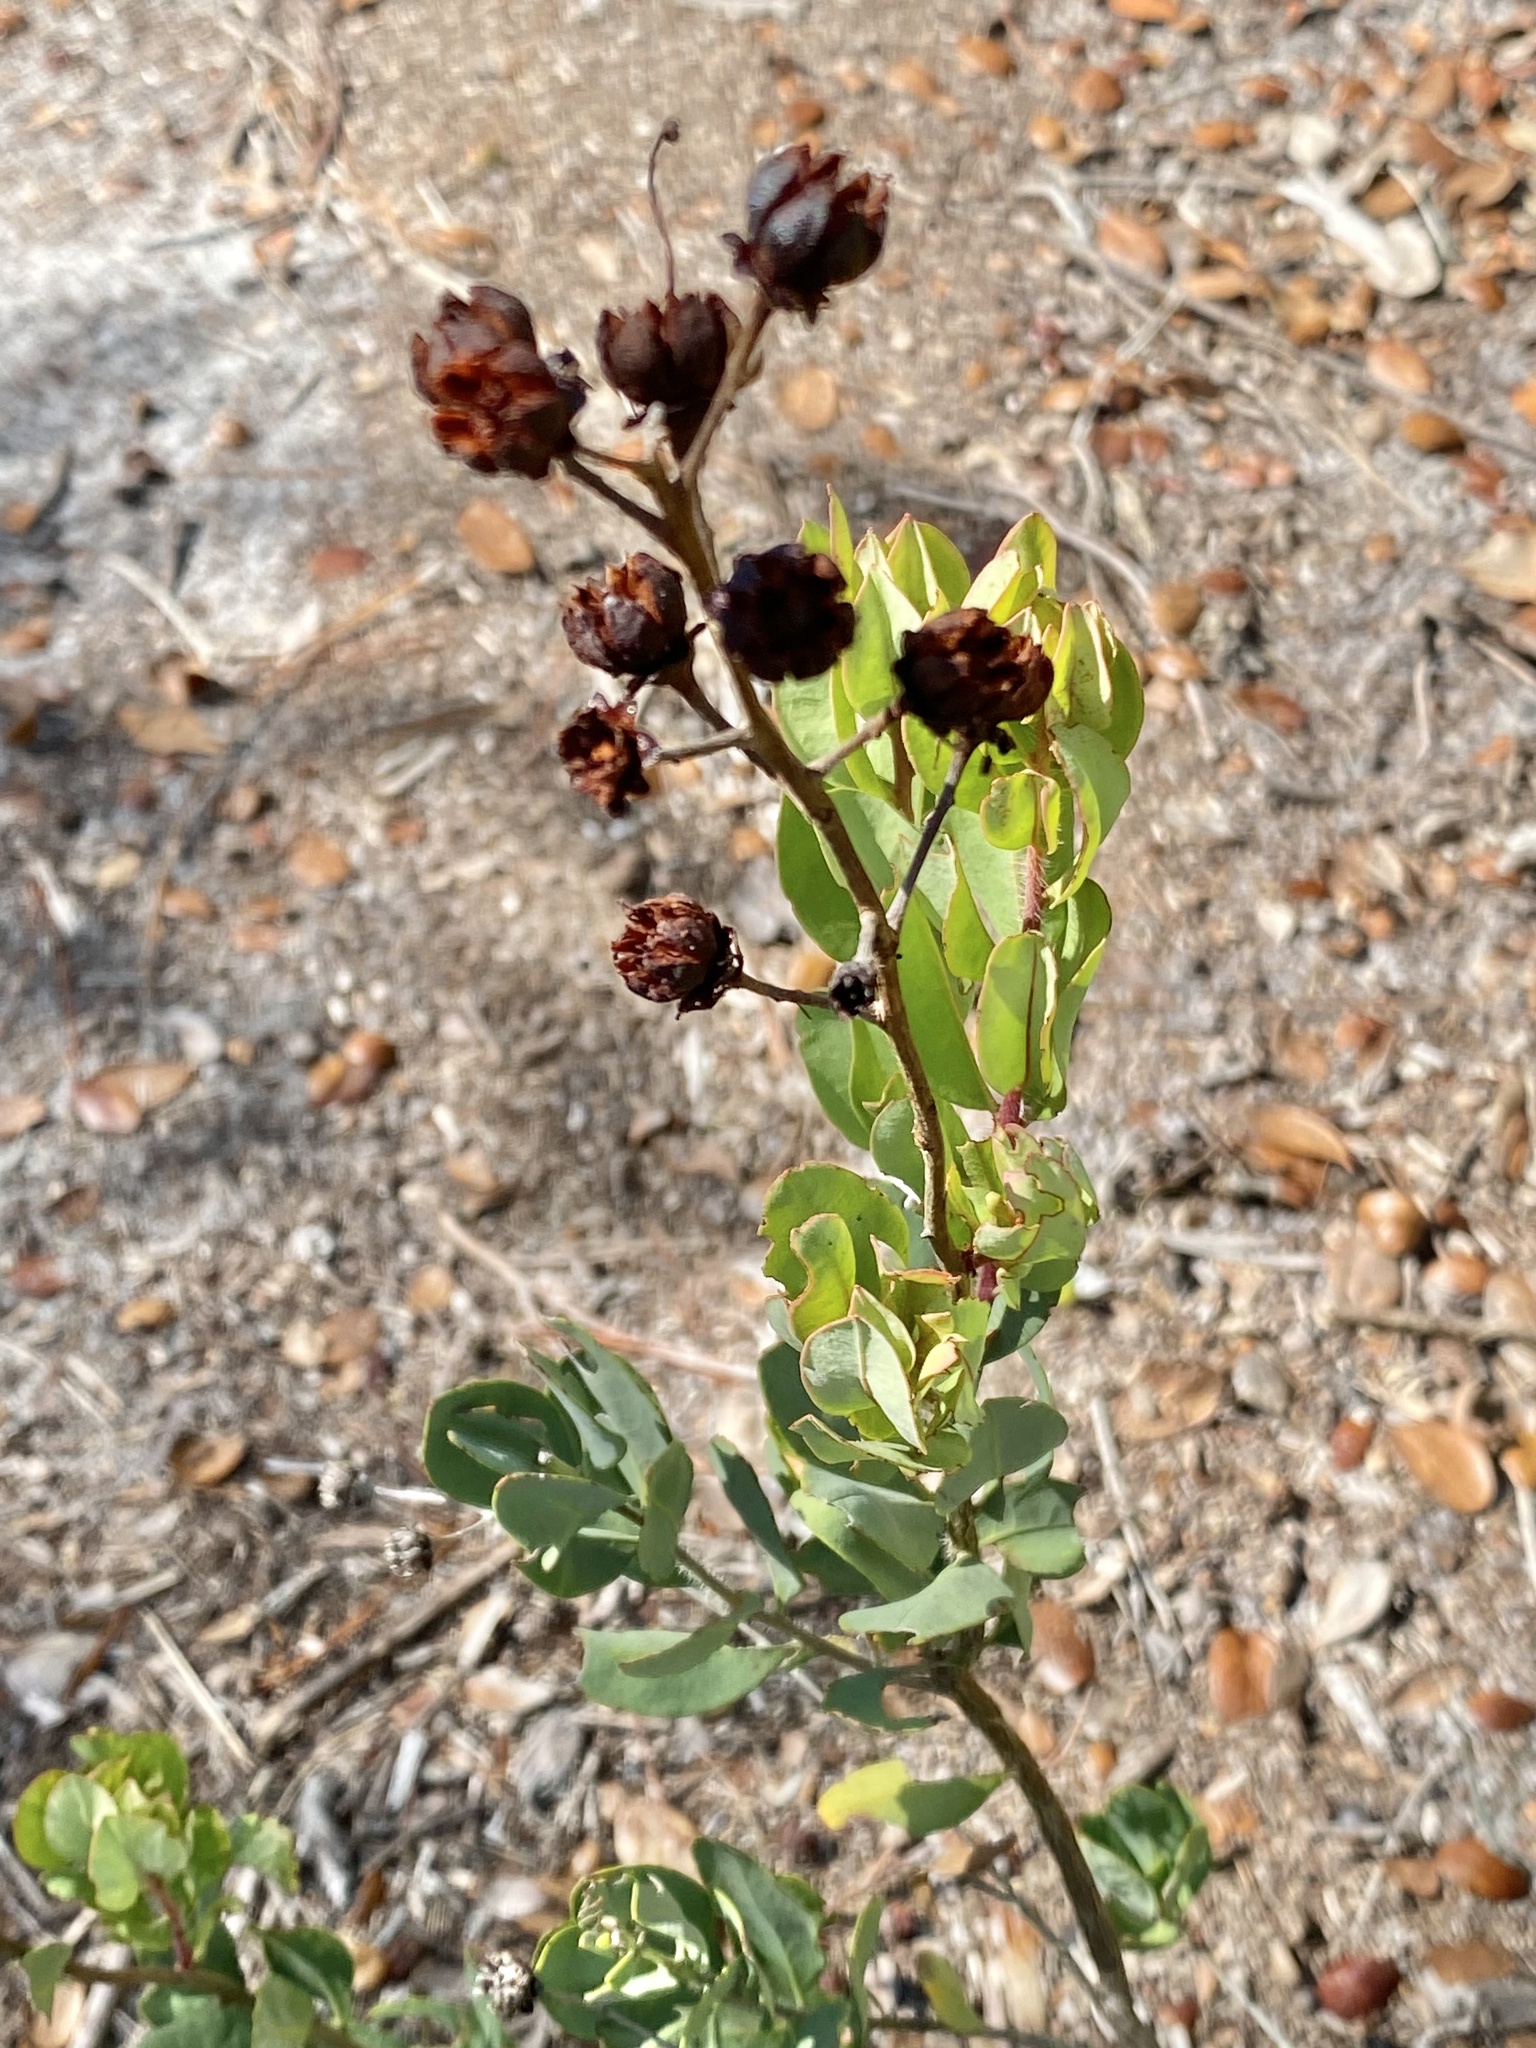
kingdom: Plantae
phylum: Tracheophyta
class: Magnoliopsida
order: Ericales
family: Ericaceae
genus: Bejaria
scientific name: Bejaria racemosa
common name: Tarflower
